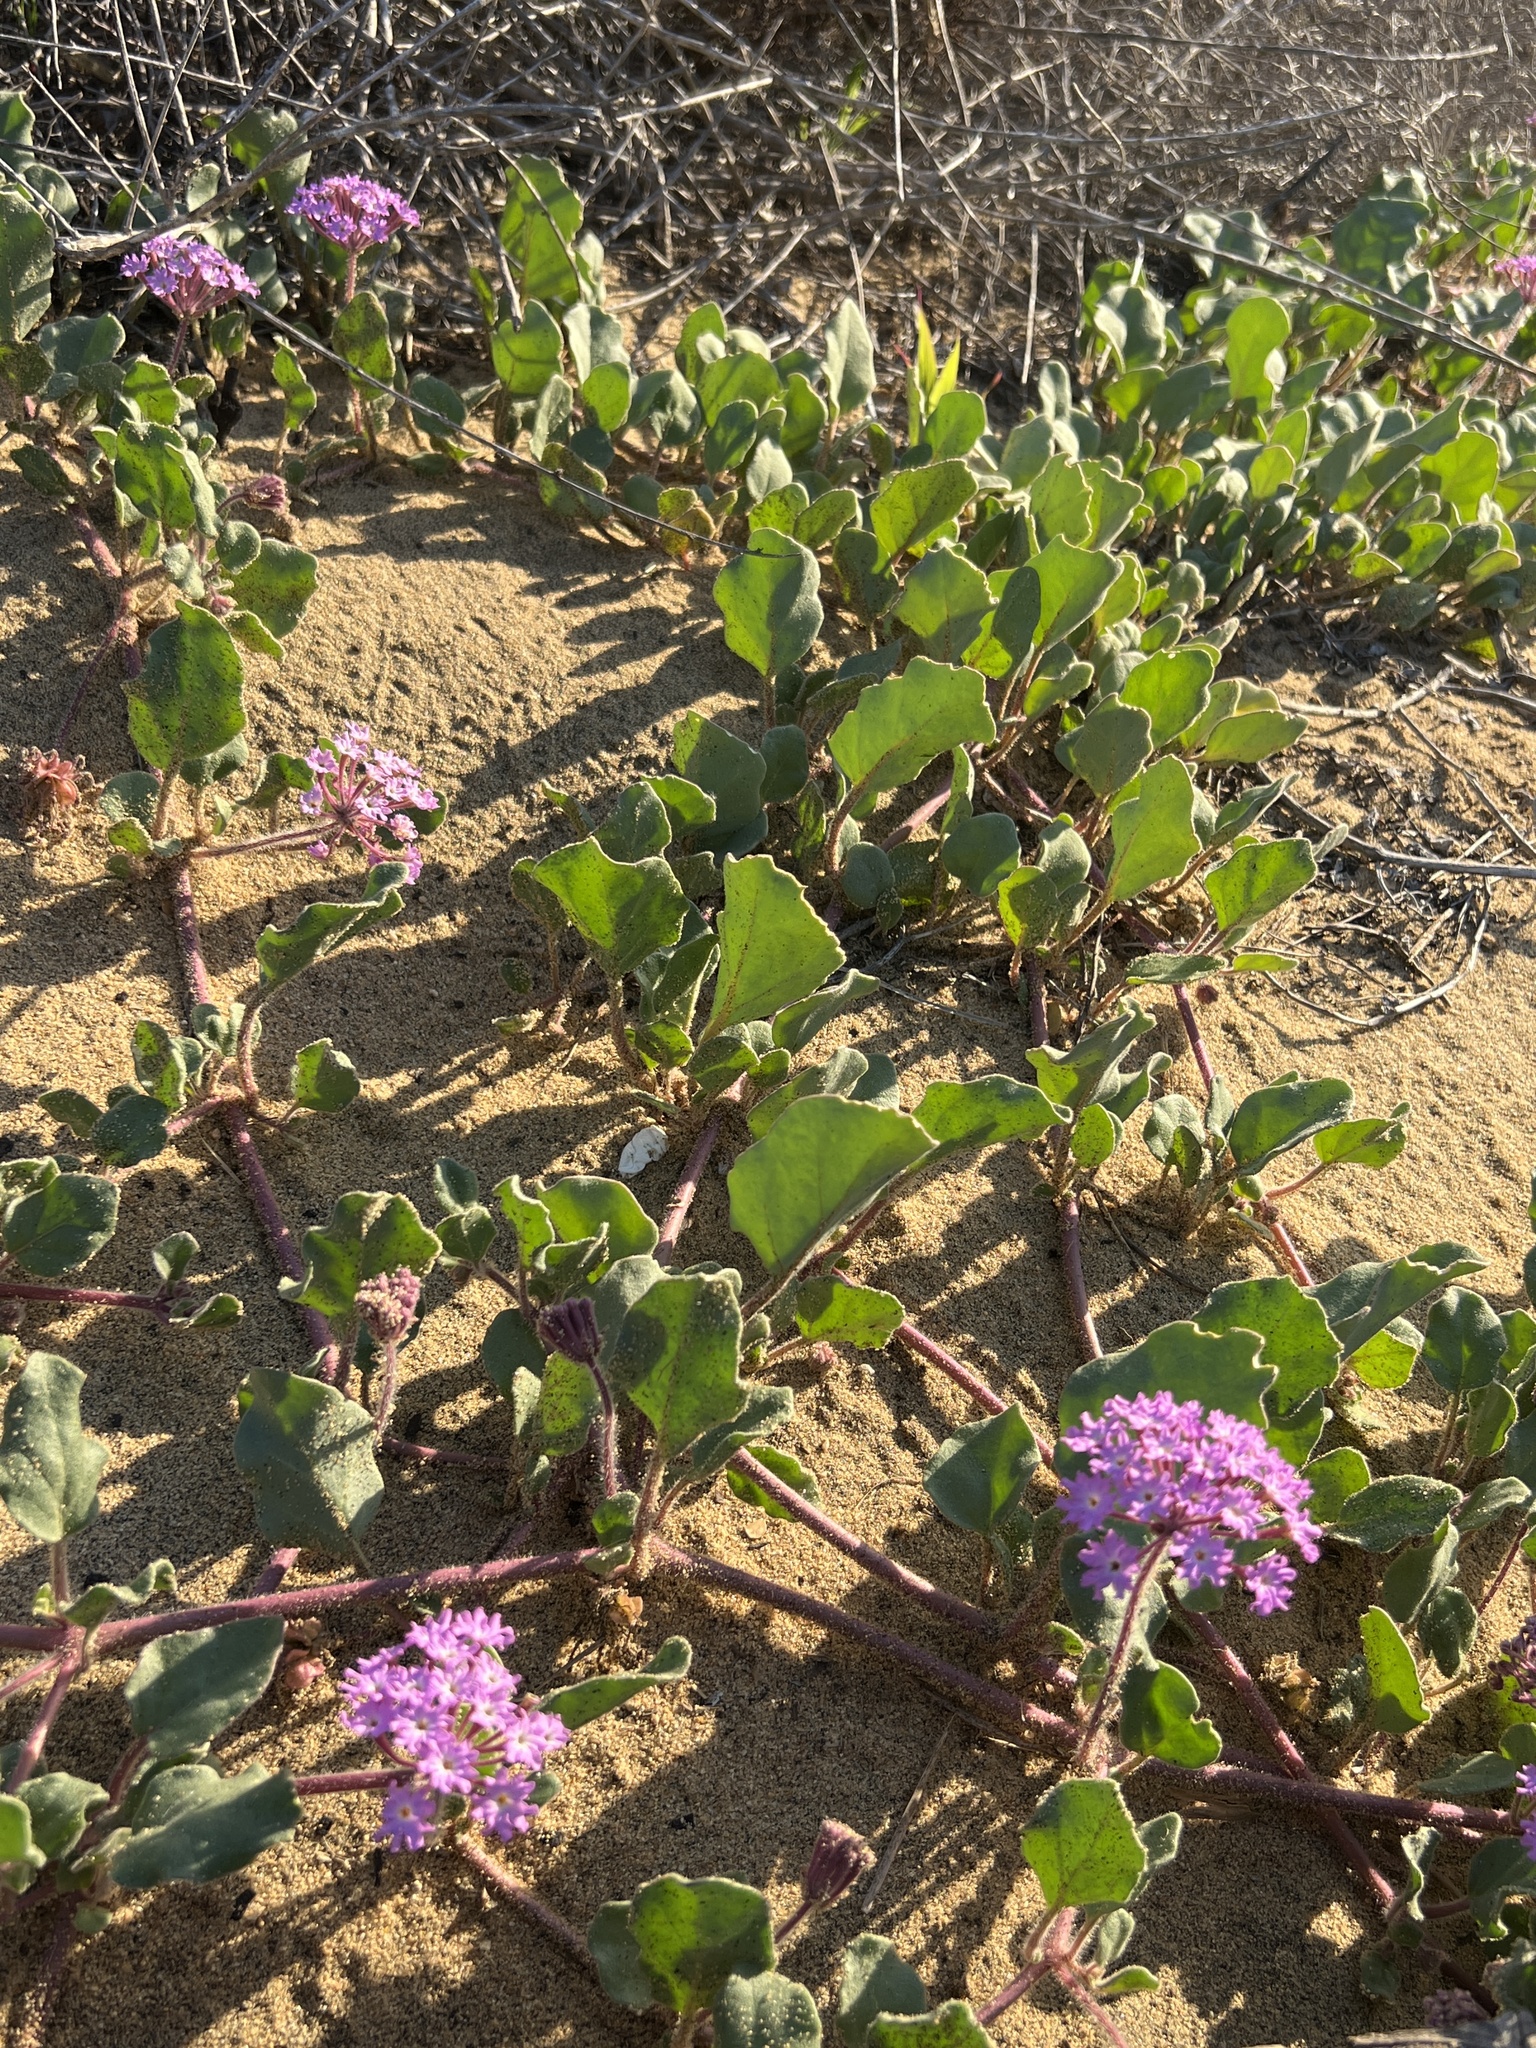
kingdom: Plantae
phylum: Tracheophyta
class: Magnoliopsida
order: Caryophyllales
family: Nyctaginaceae
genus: Abronia
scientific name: Abronia umbellata
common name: Sand-verbena
